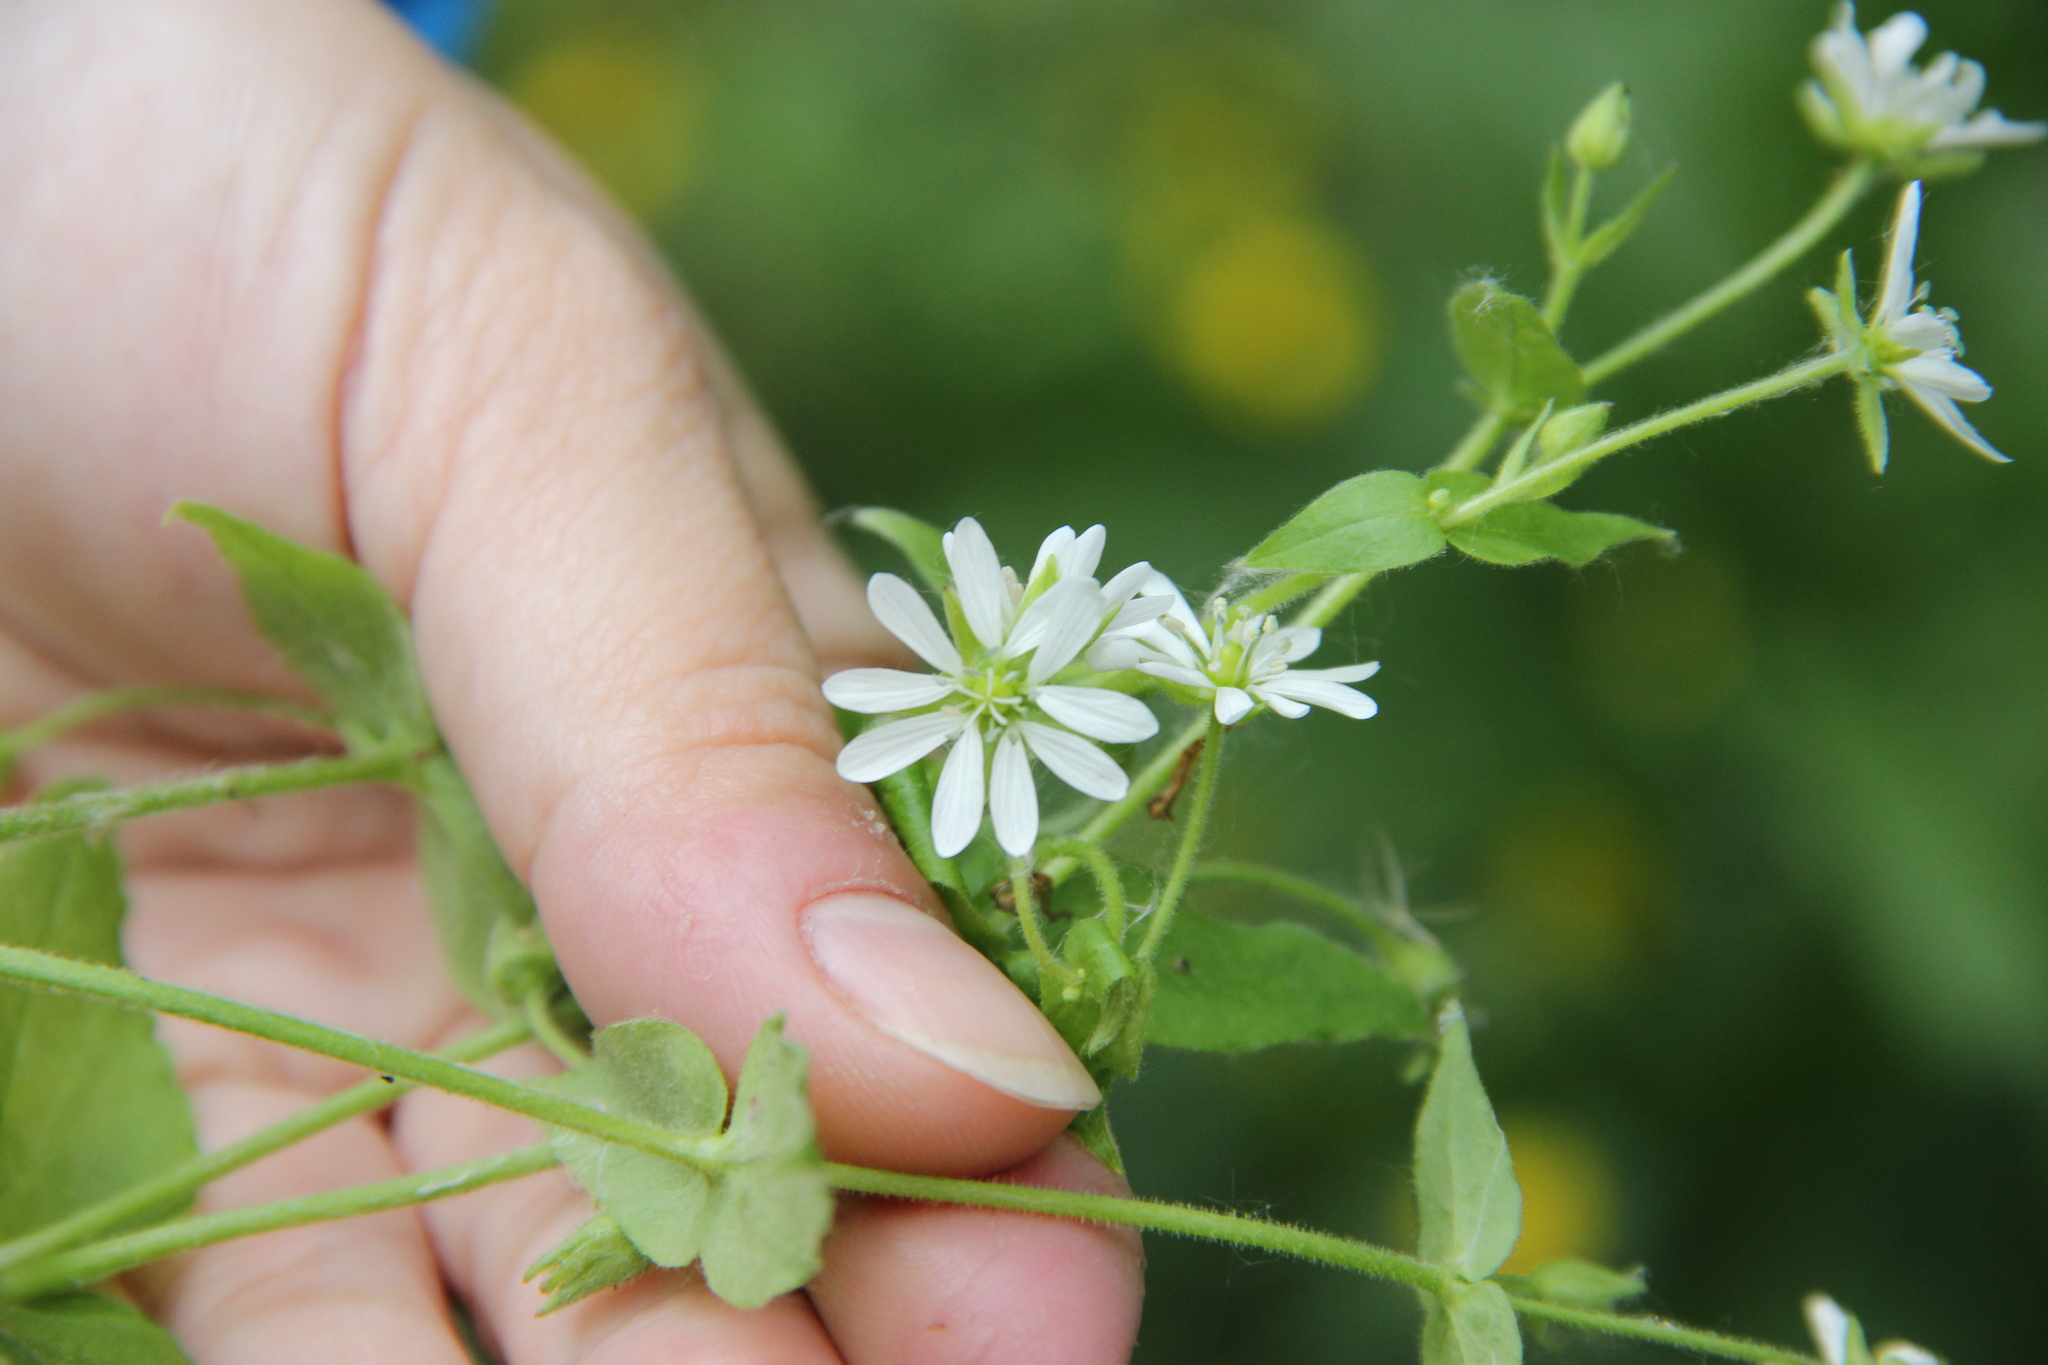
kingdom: Plantae
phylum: Tracheophyta
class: Magnoliopsida
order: Caryophyllales
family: Caryophyllaceae
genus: Stellaria
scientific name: Stellaria aquatica
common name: Water chickweed
